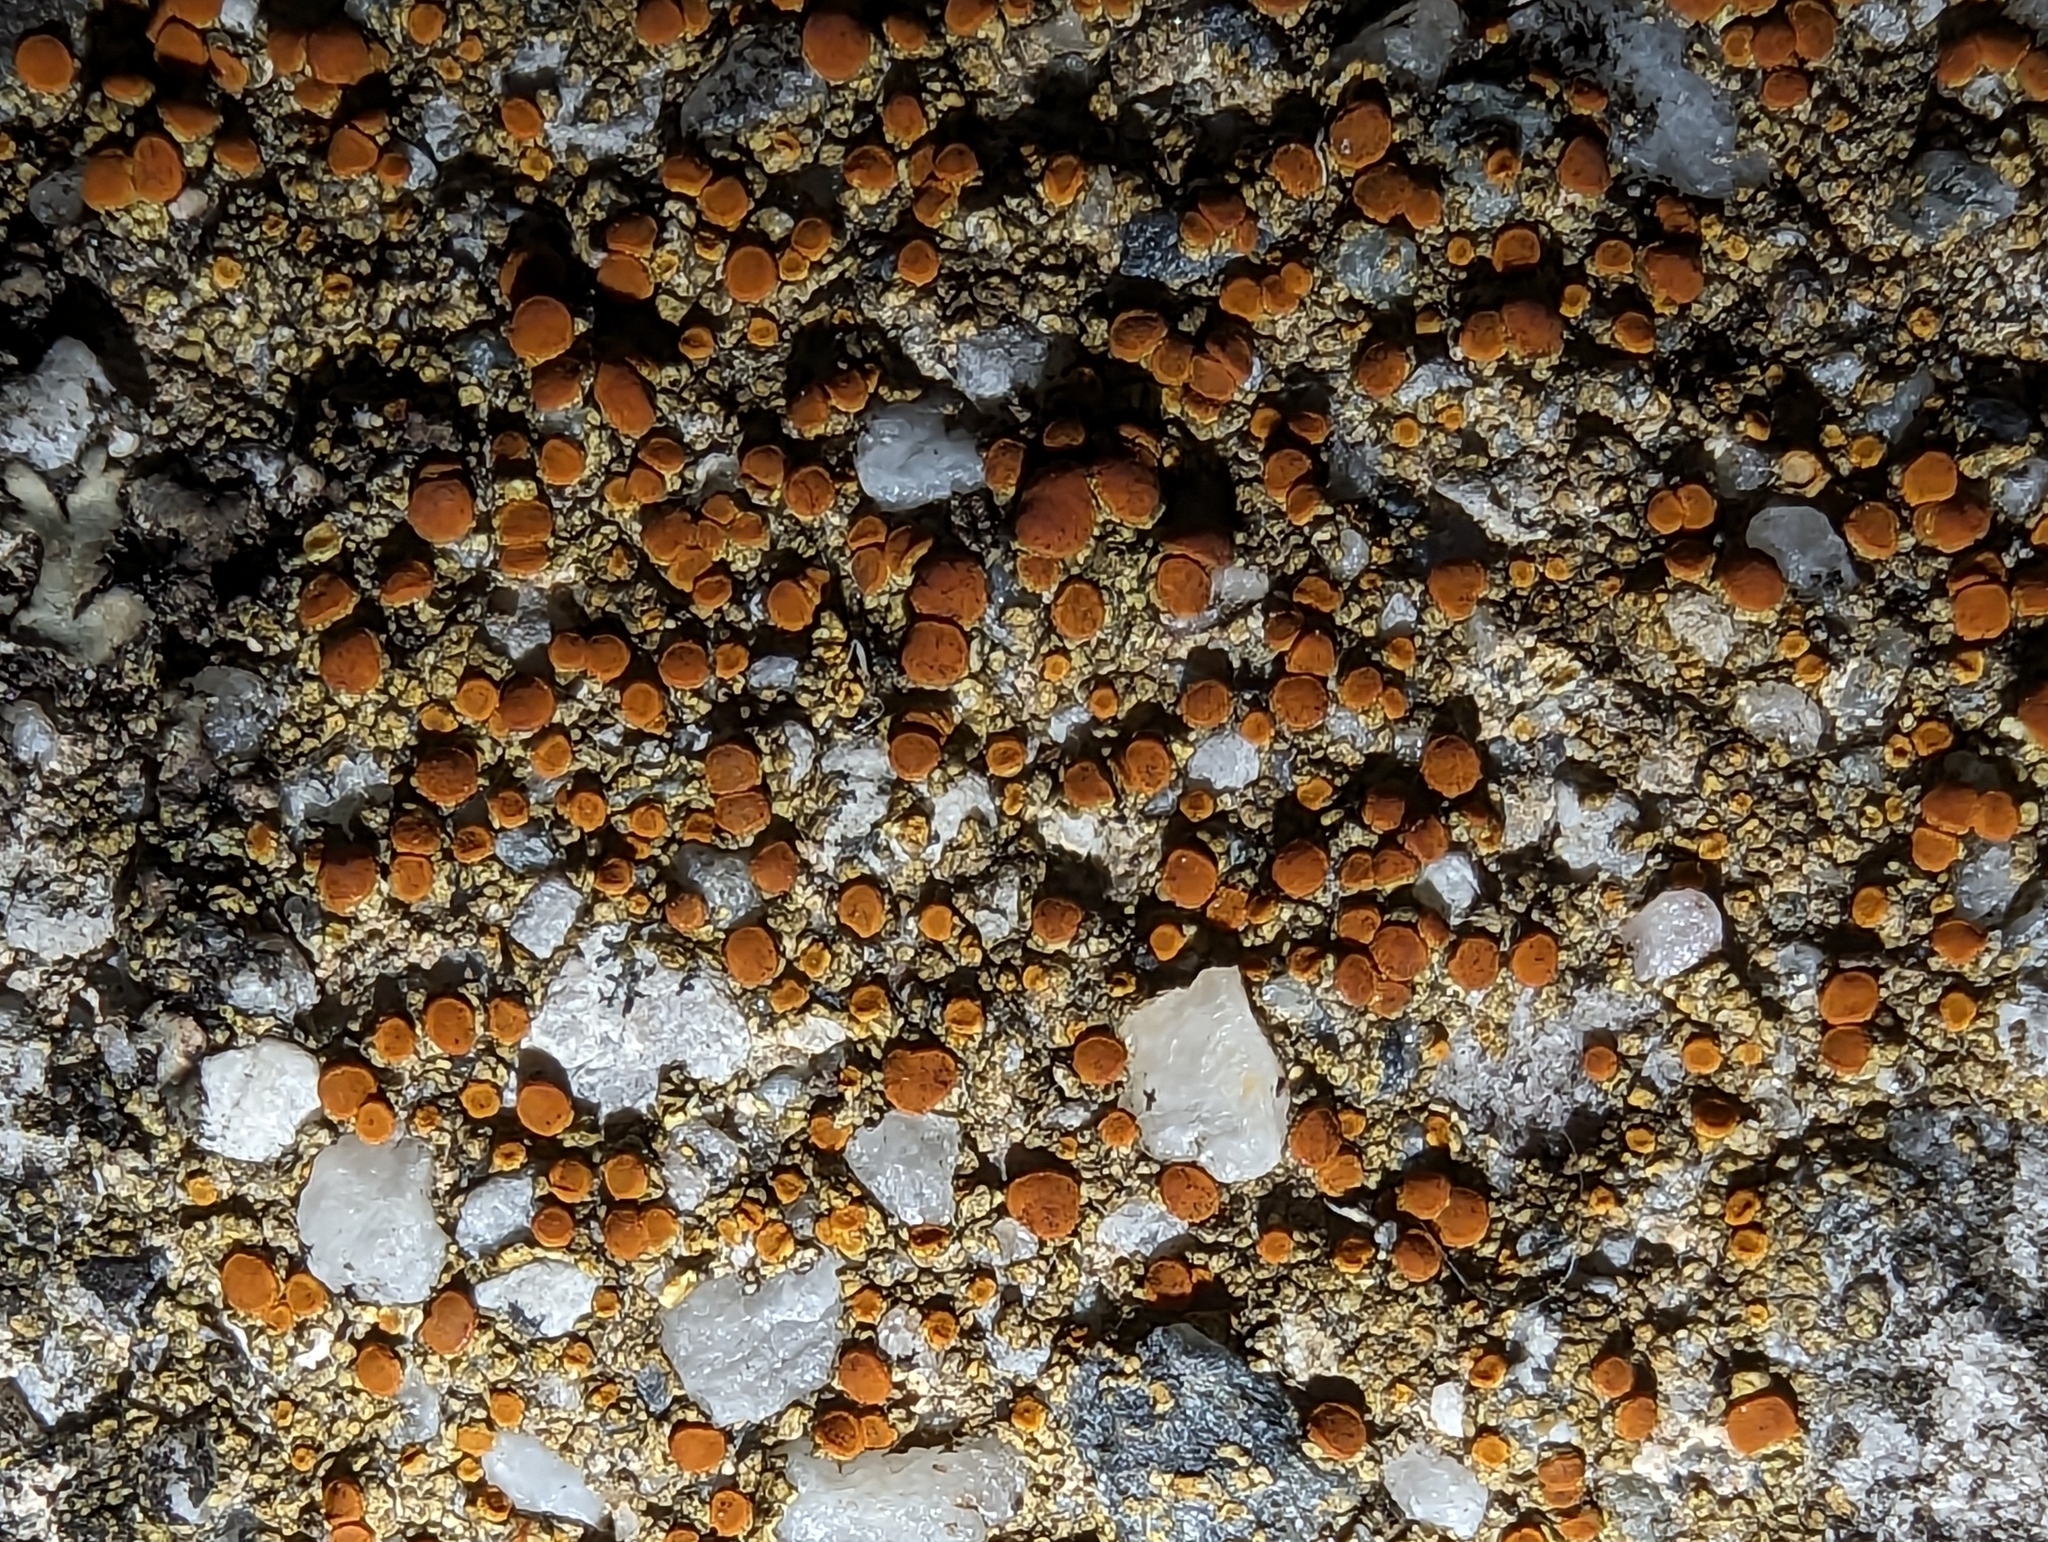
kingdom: Fungi
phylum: Ascomycota
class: Lecanoromycetes
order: Teloschistales
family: Teloschistaceae
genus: Xanthocarpia
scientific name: Xanthocarpia feracissima
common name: Sidewalk firedot
